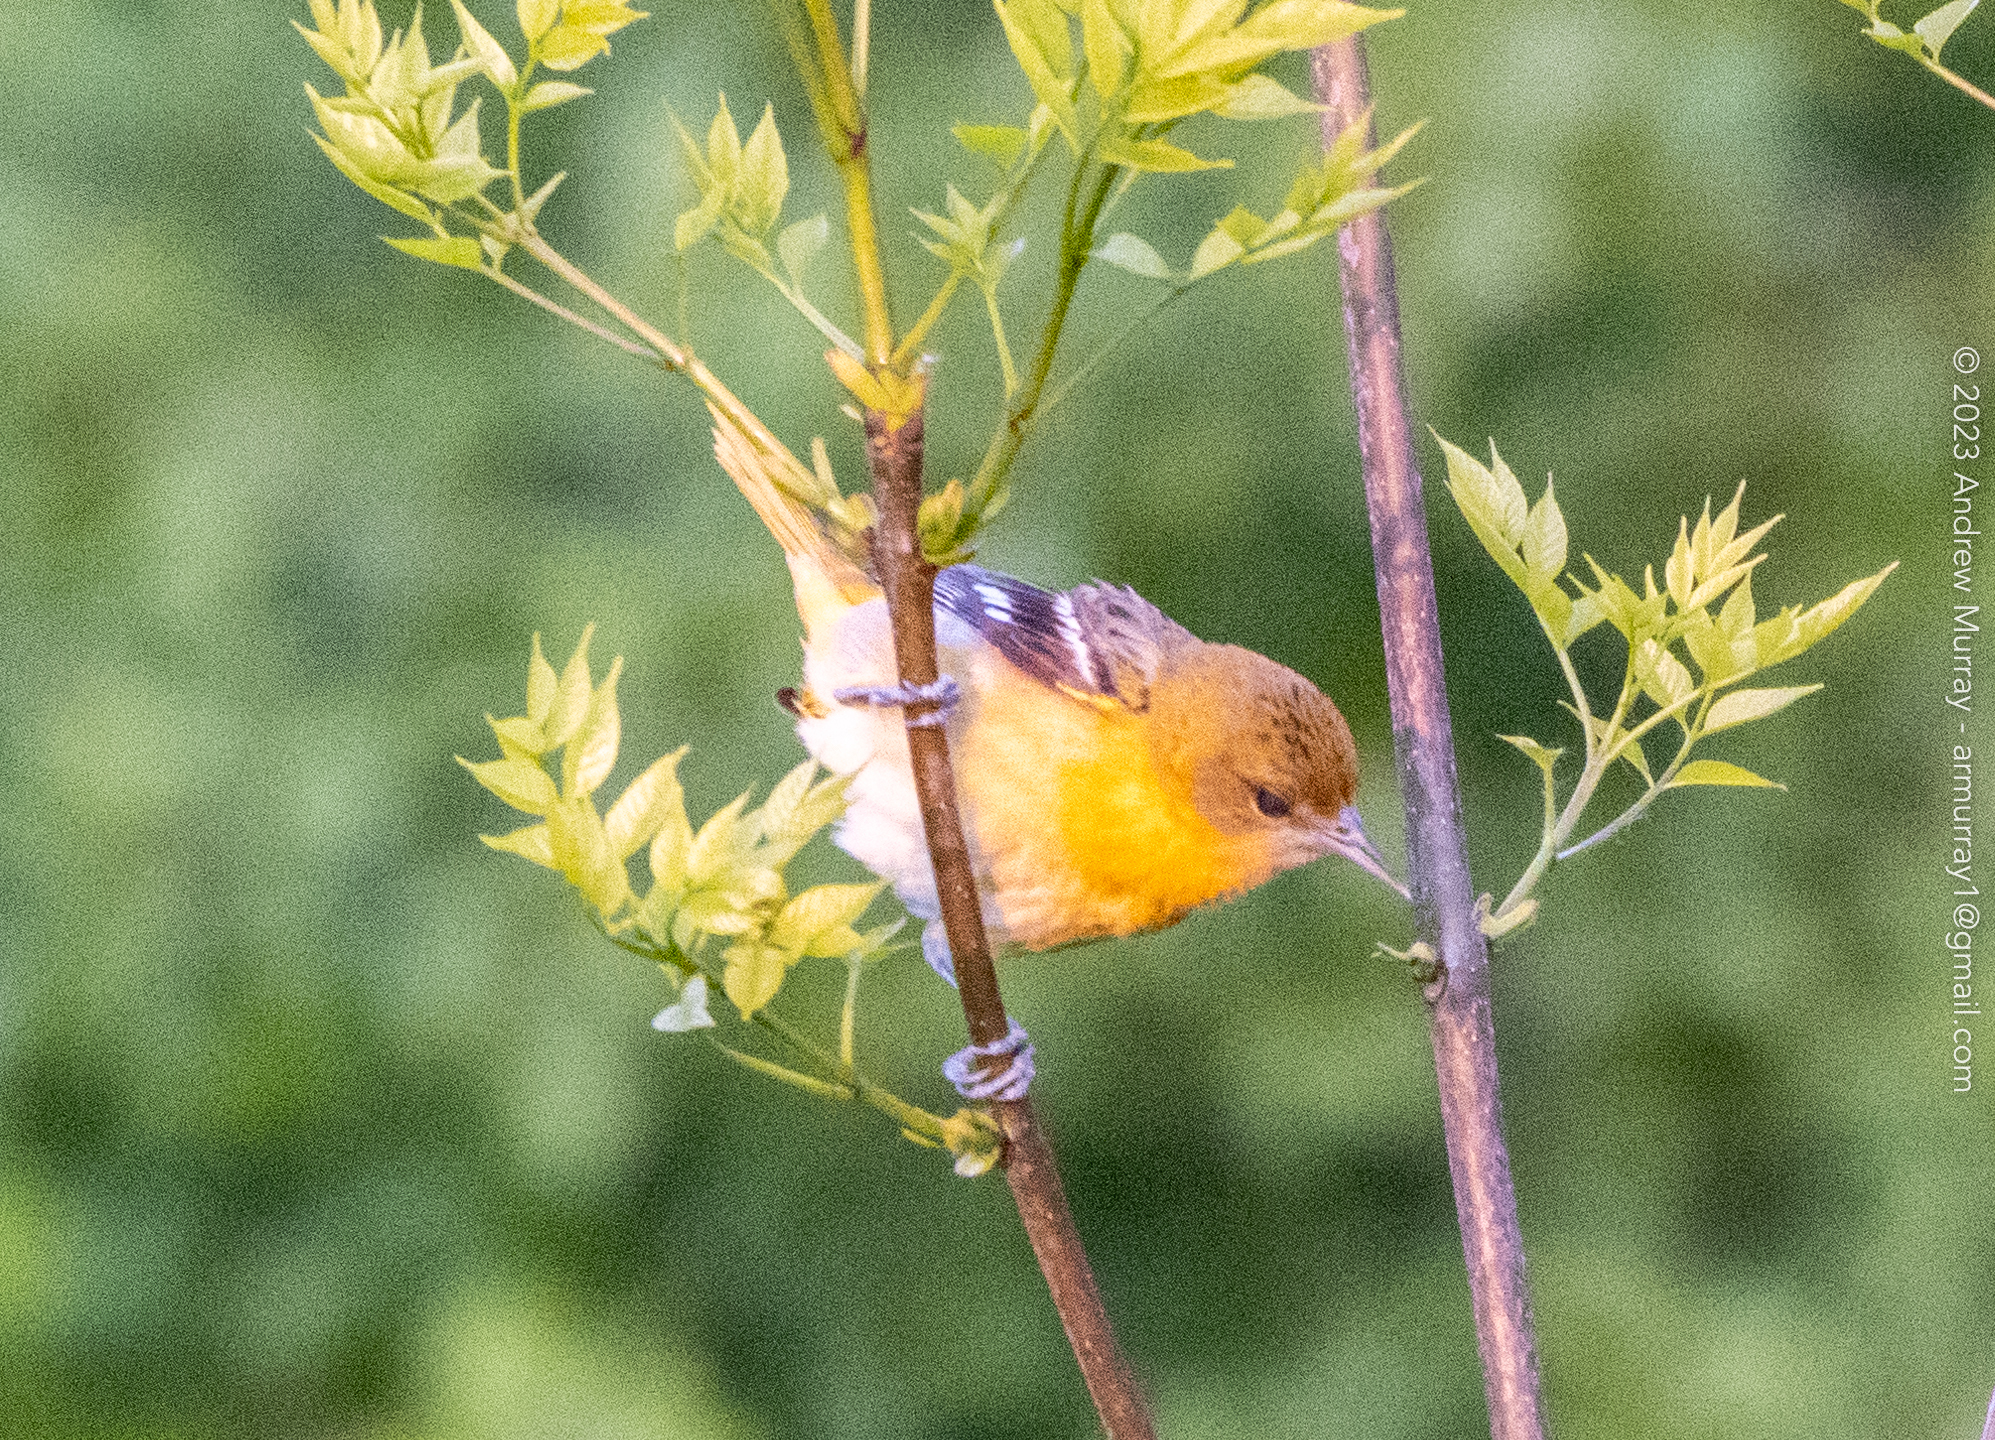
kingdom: Animalia
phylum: Chordata
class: Aves
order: Passeriformes
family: Icteridae
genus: Icterus
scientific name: Icterus galbula
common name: Baltimore oriole
